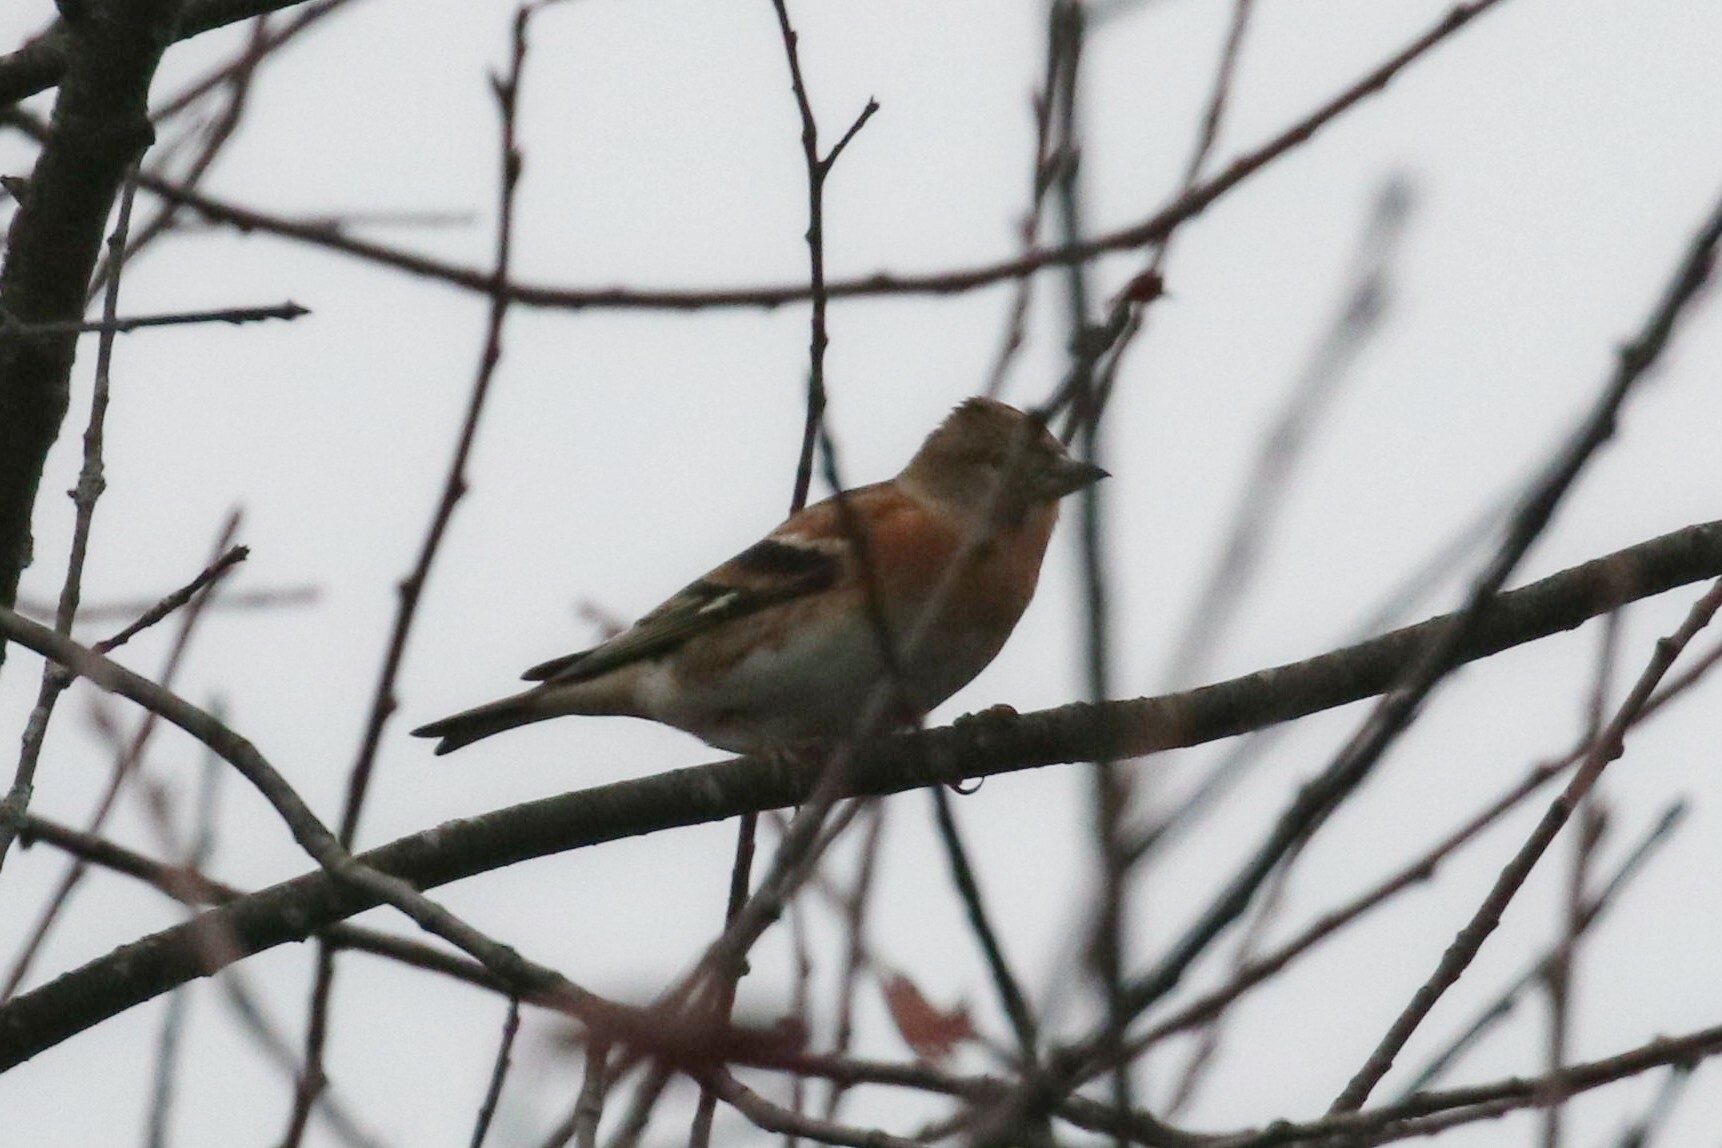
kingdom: Animalia
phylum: Chordata
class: Aves
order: Passeriformes
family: Fringillidae
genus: Fringilla
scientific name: Fringilla montifringilla
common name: Brambling
